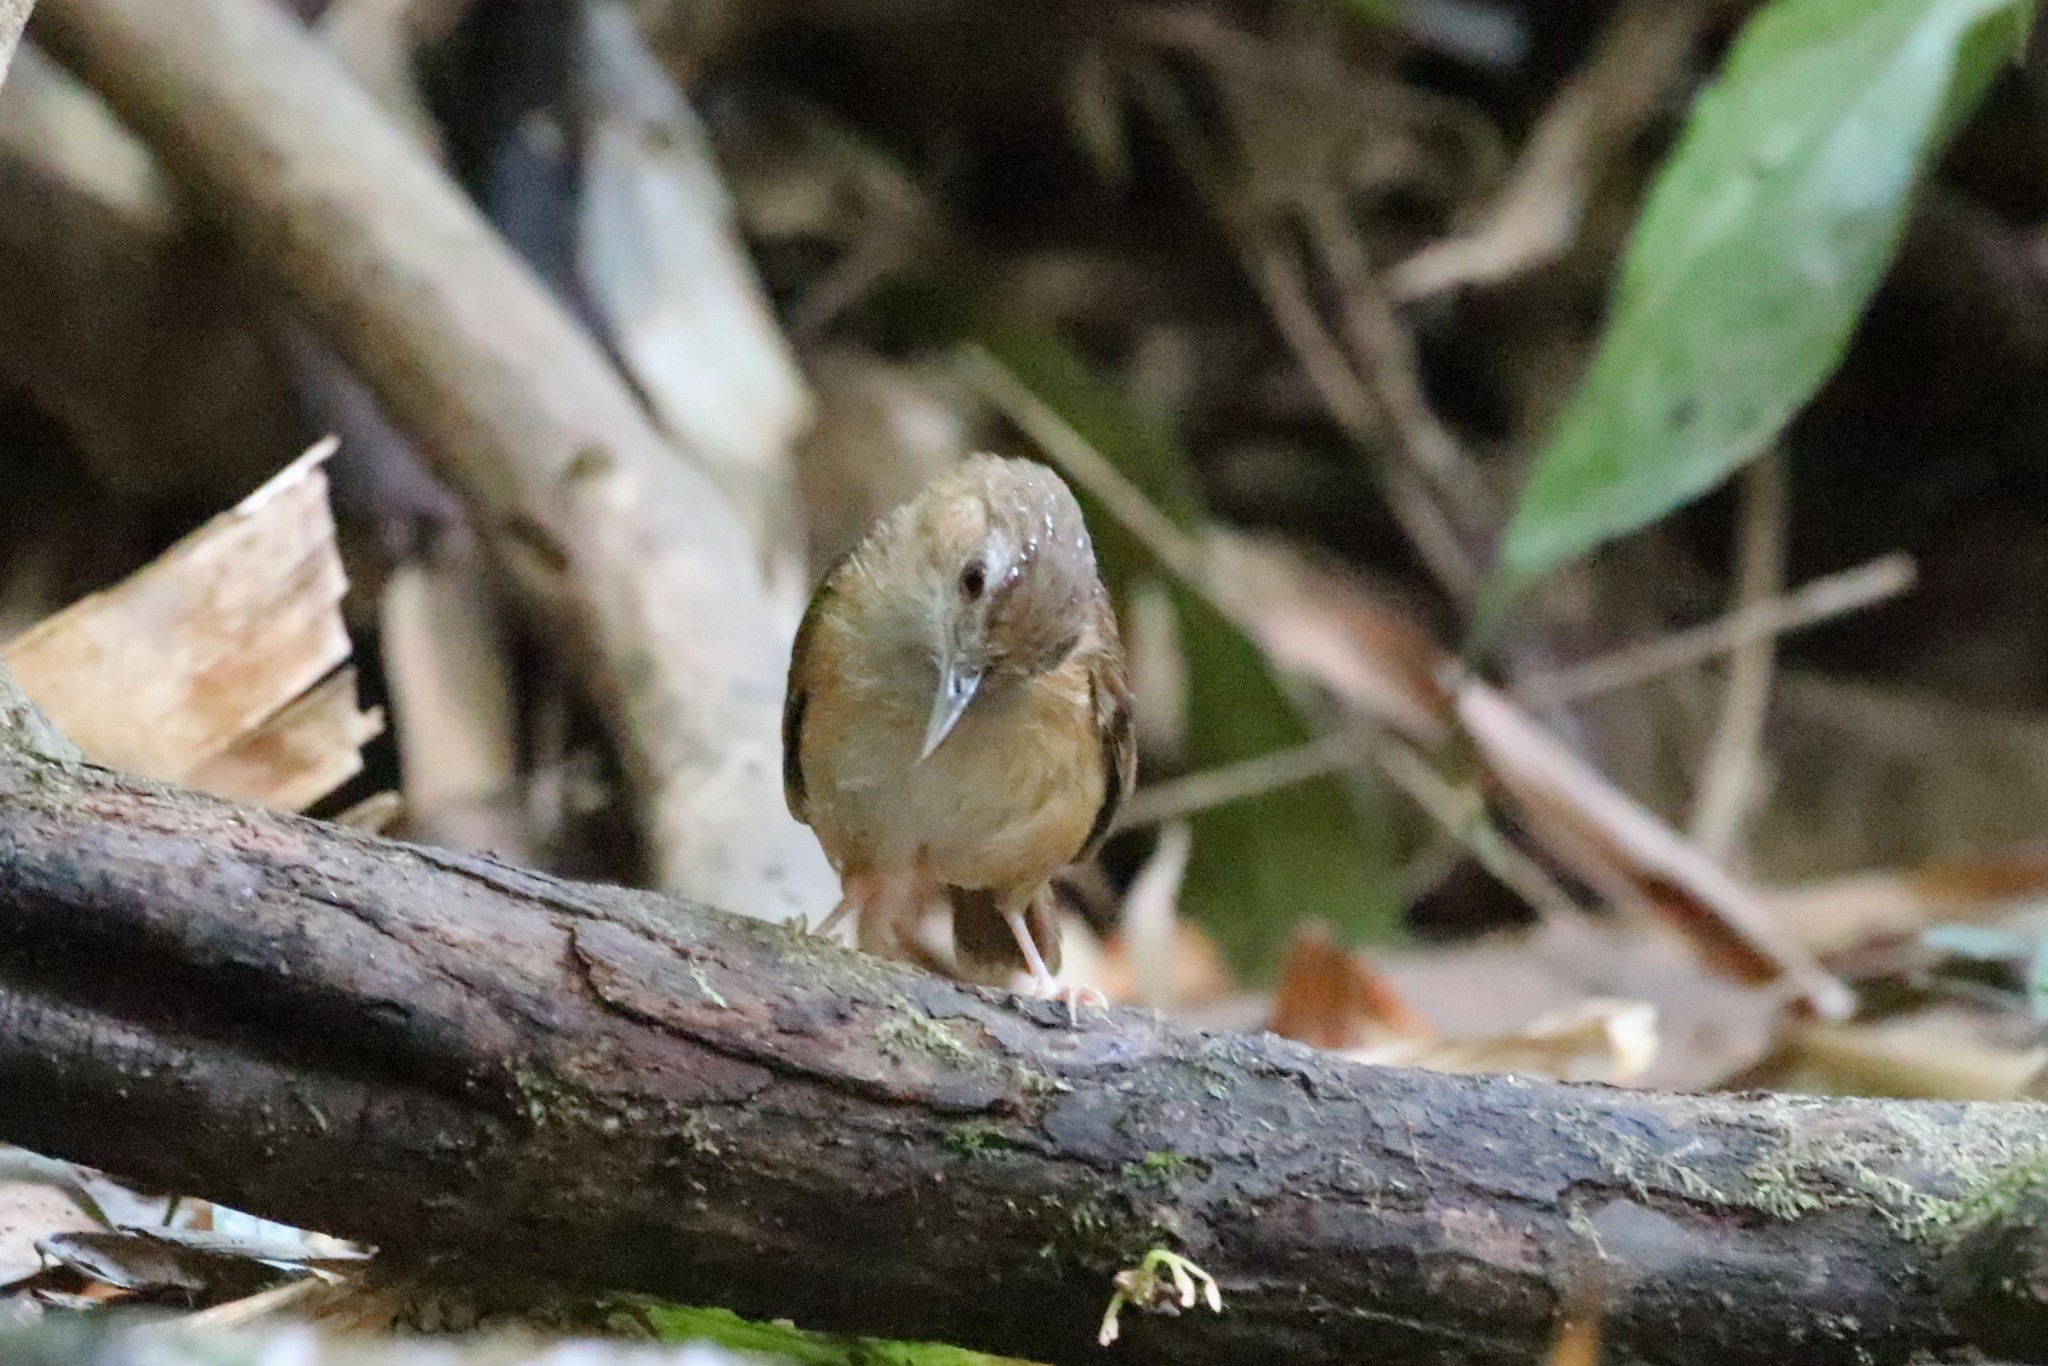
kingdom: Animalia
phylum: Chordata
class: Aves
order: Passeriformes
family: Pellorneidae
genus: Malacocincla
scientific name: Malacocincla abbotti
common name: Abbott's babbler
